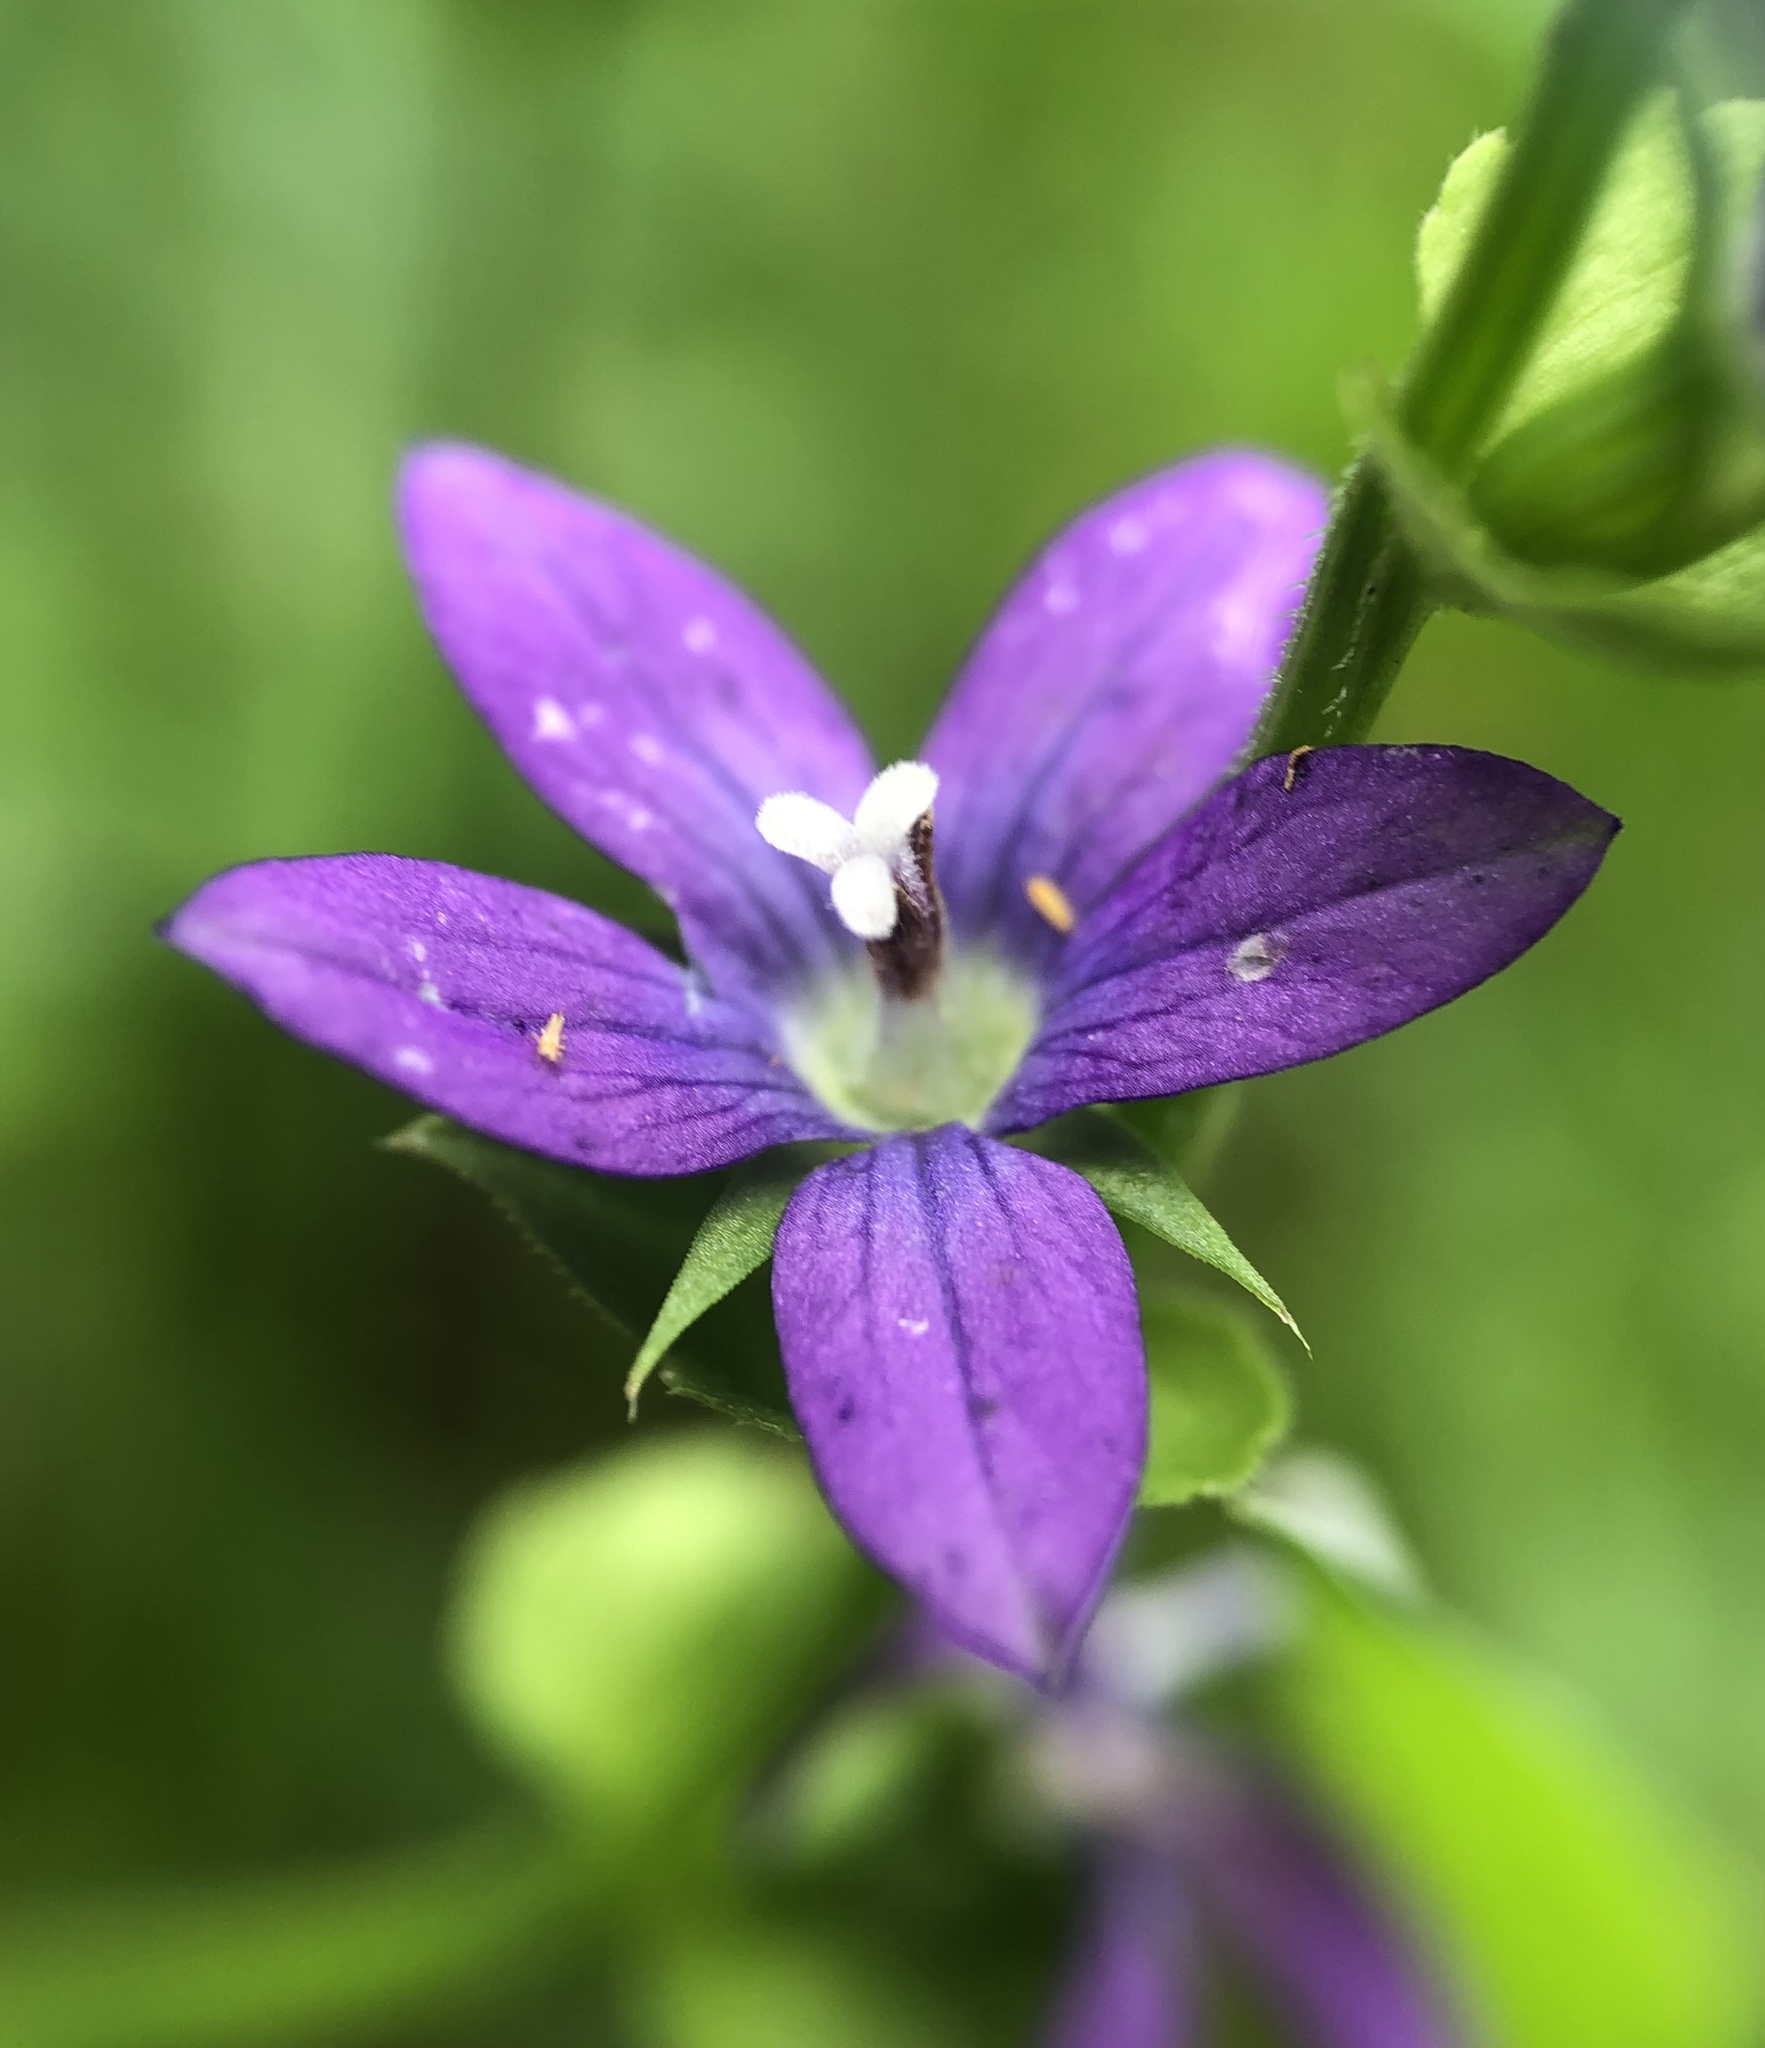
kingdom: Plantae
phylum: Tracheophyta
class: Magnoliopsida
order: Asterales
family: Campanulaceae
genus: Triodanis
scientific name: Triodanis perfoliata
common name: Clasping venus' looking-glass
